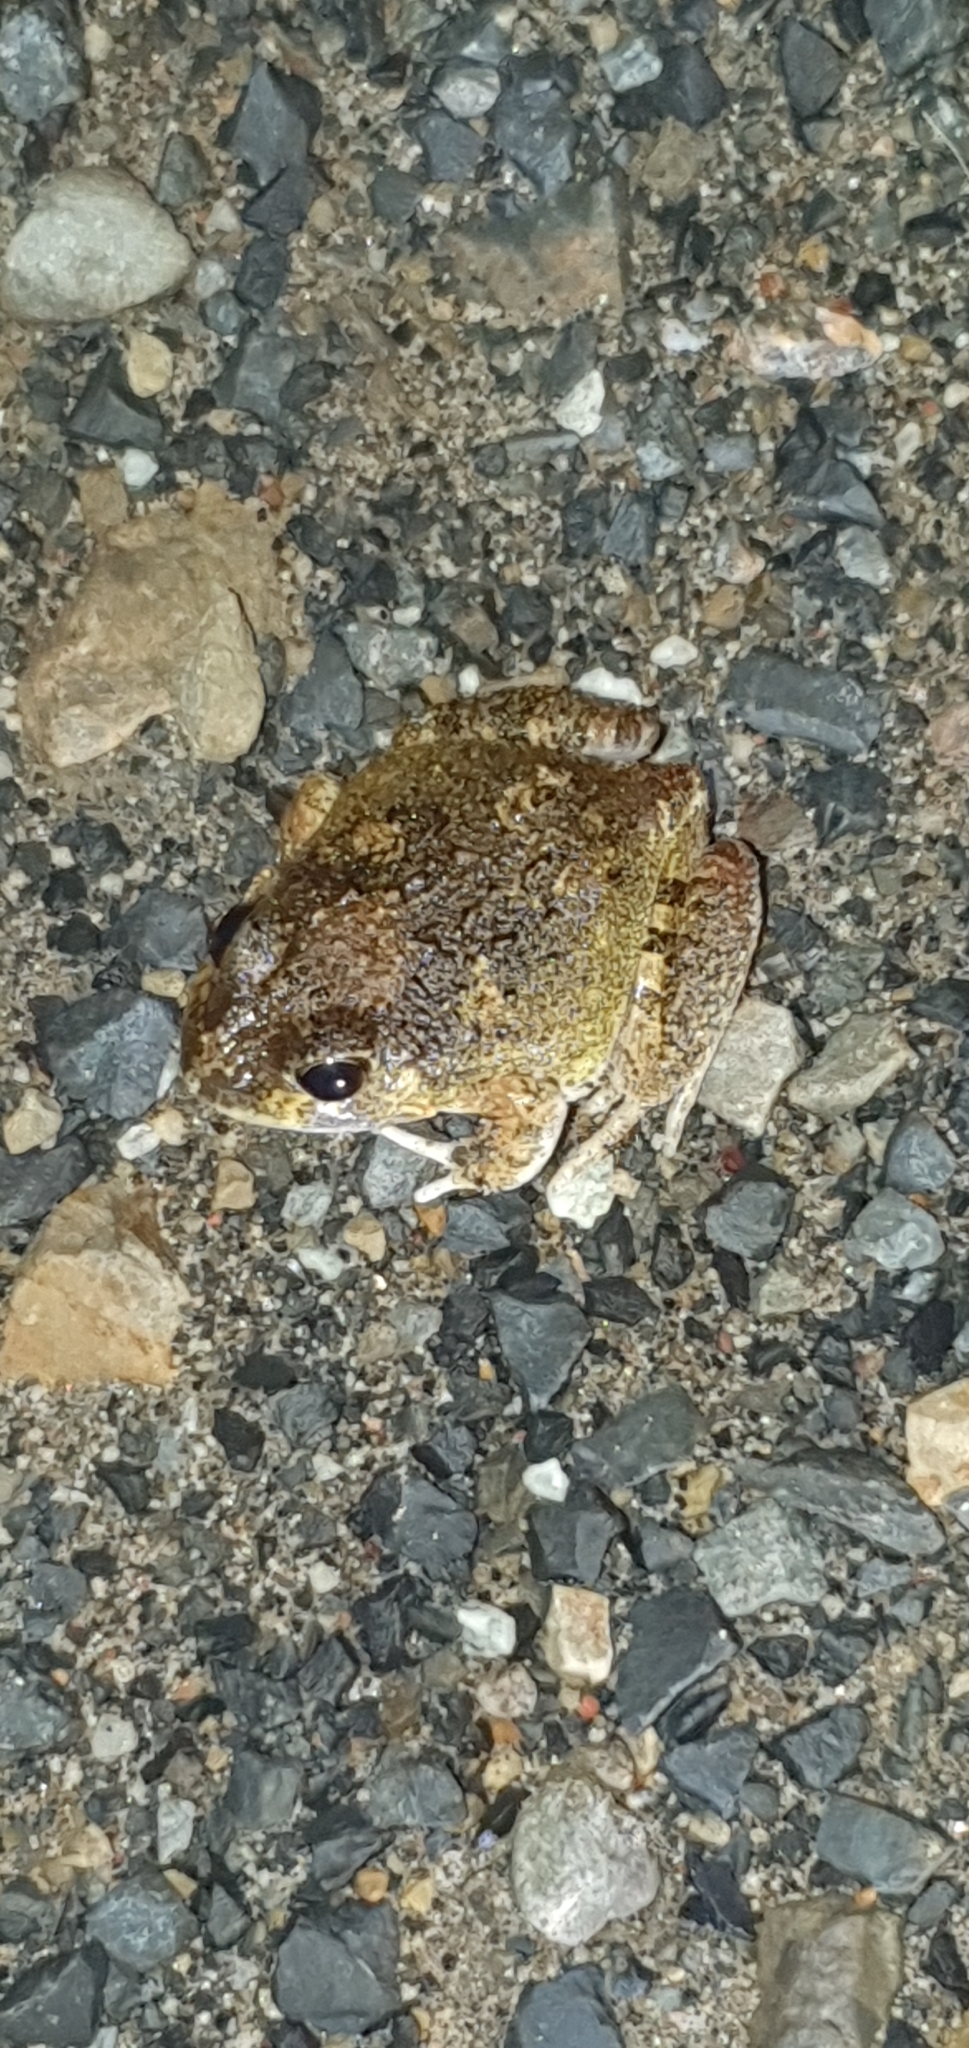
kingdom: Animalia
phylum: Chordata
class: Amphibia
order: Anura
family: Limnodynastidae
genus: Platyplectrum
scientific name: Platyplectrum ornatum
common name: Ornate burrowing frog
